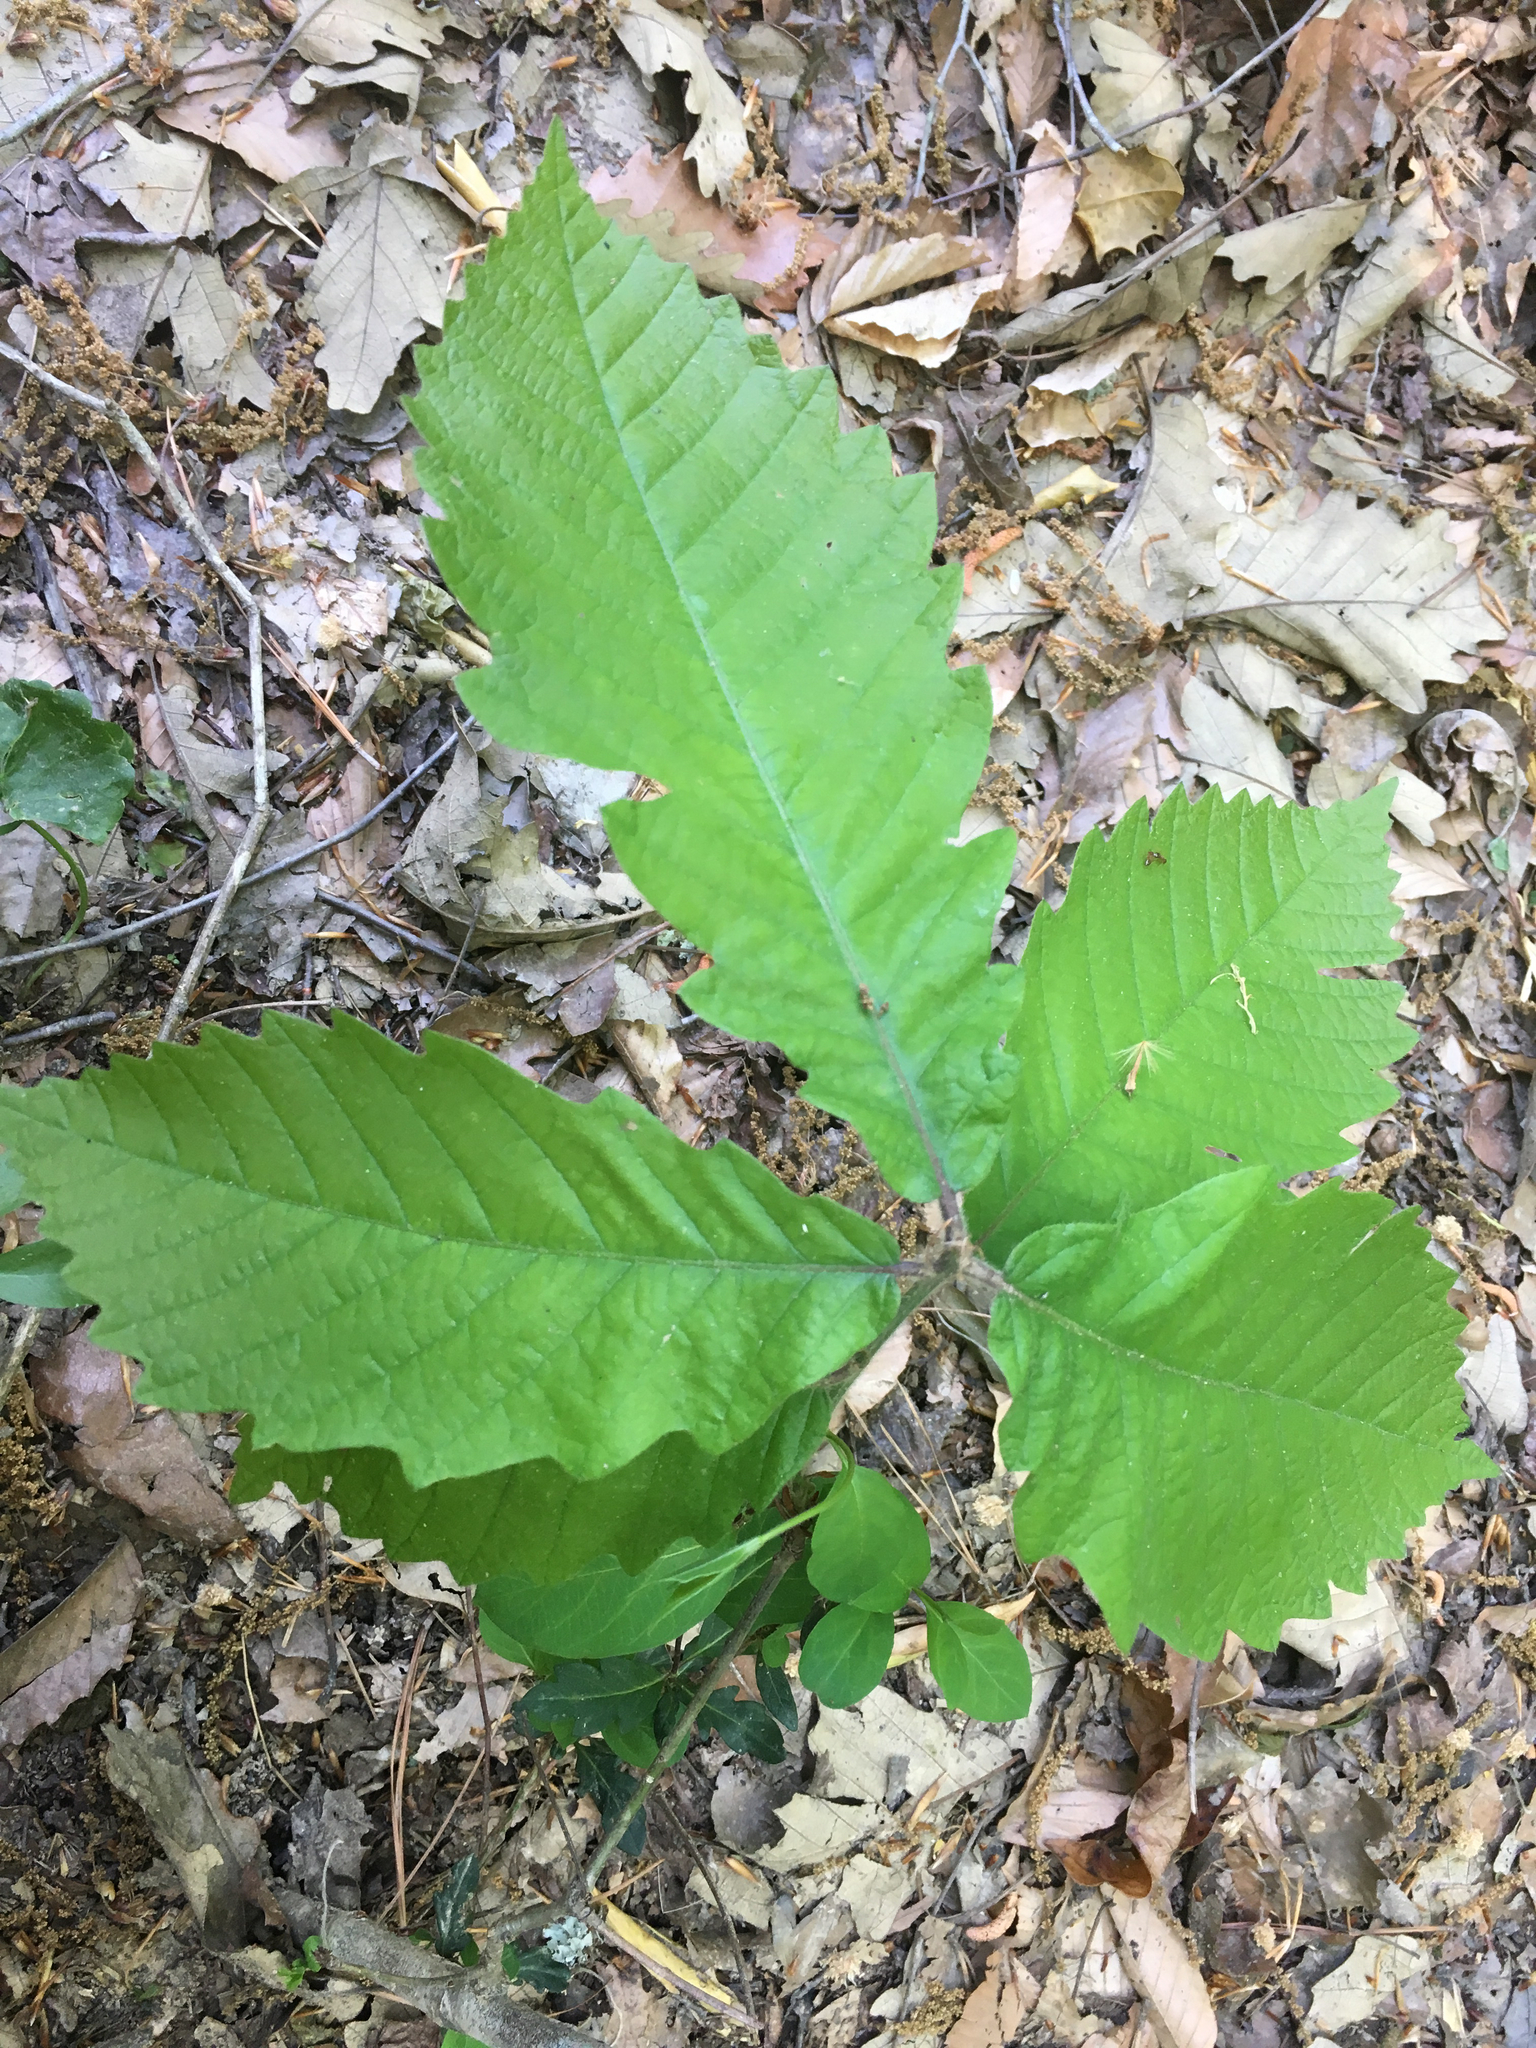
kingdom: Plantae
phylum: Tracheophyta
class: Magnoliopsida
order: Fagales
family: Fagaceae
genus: Quercus
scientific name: Quercus michauxii
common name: Swamp chestnut oak
